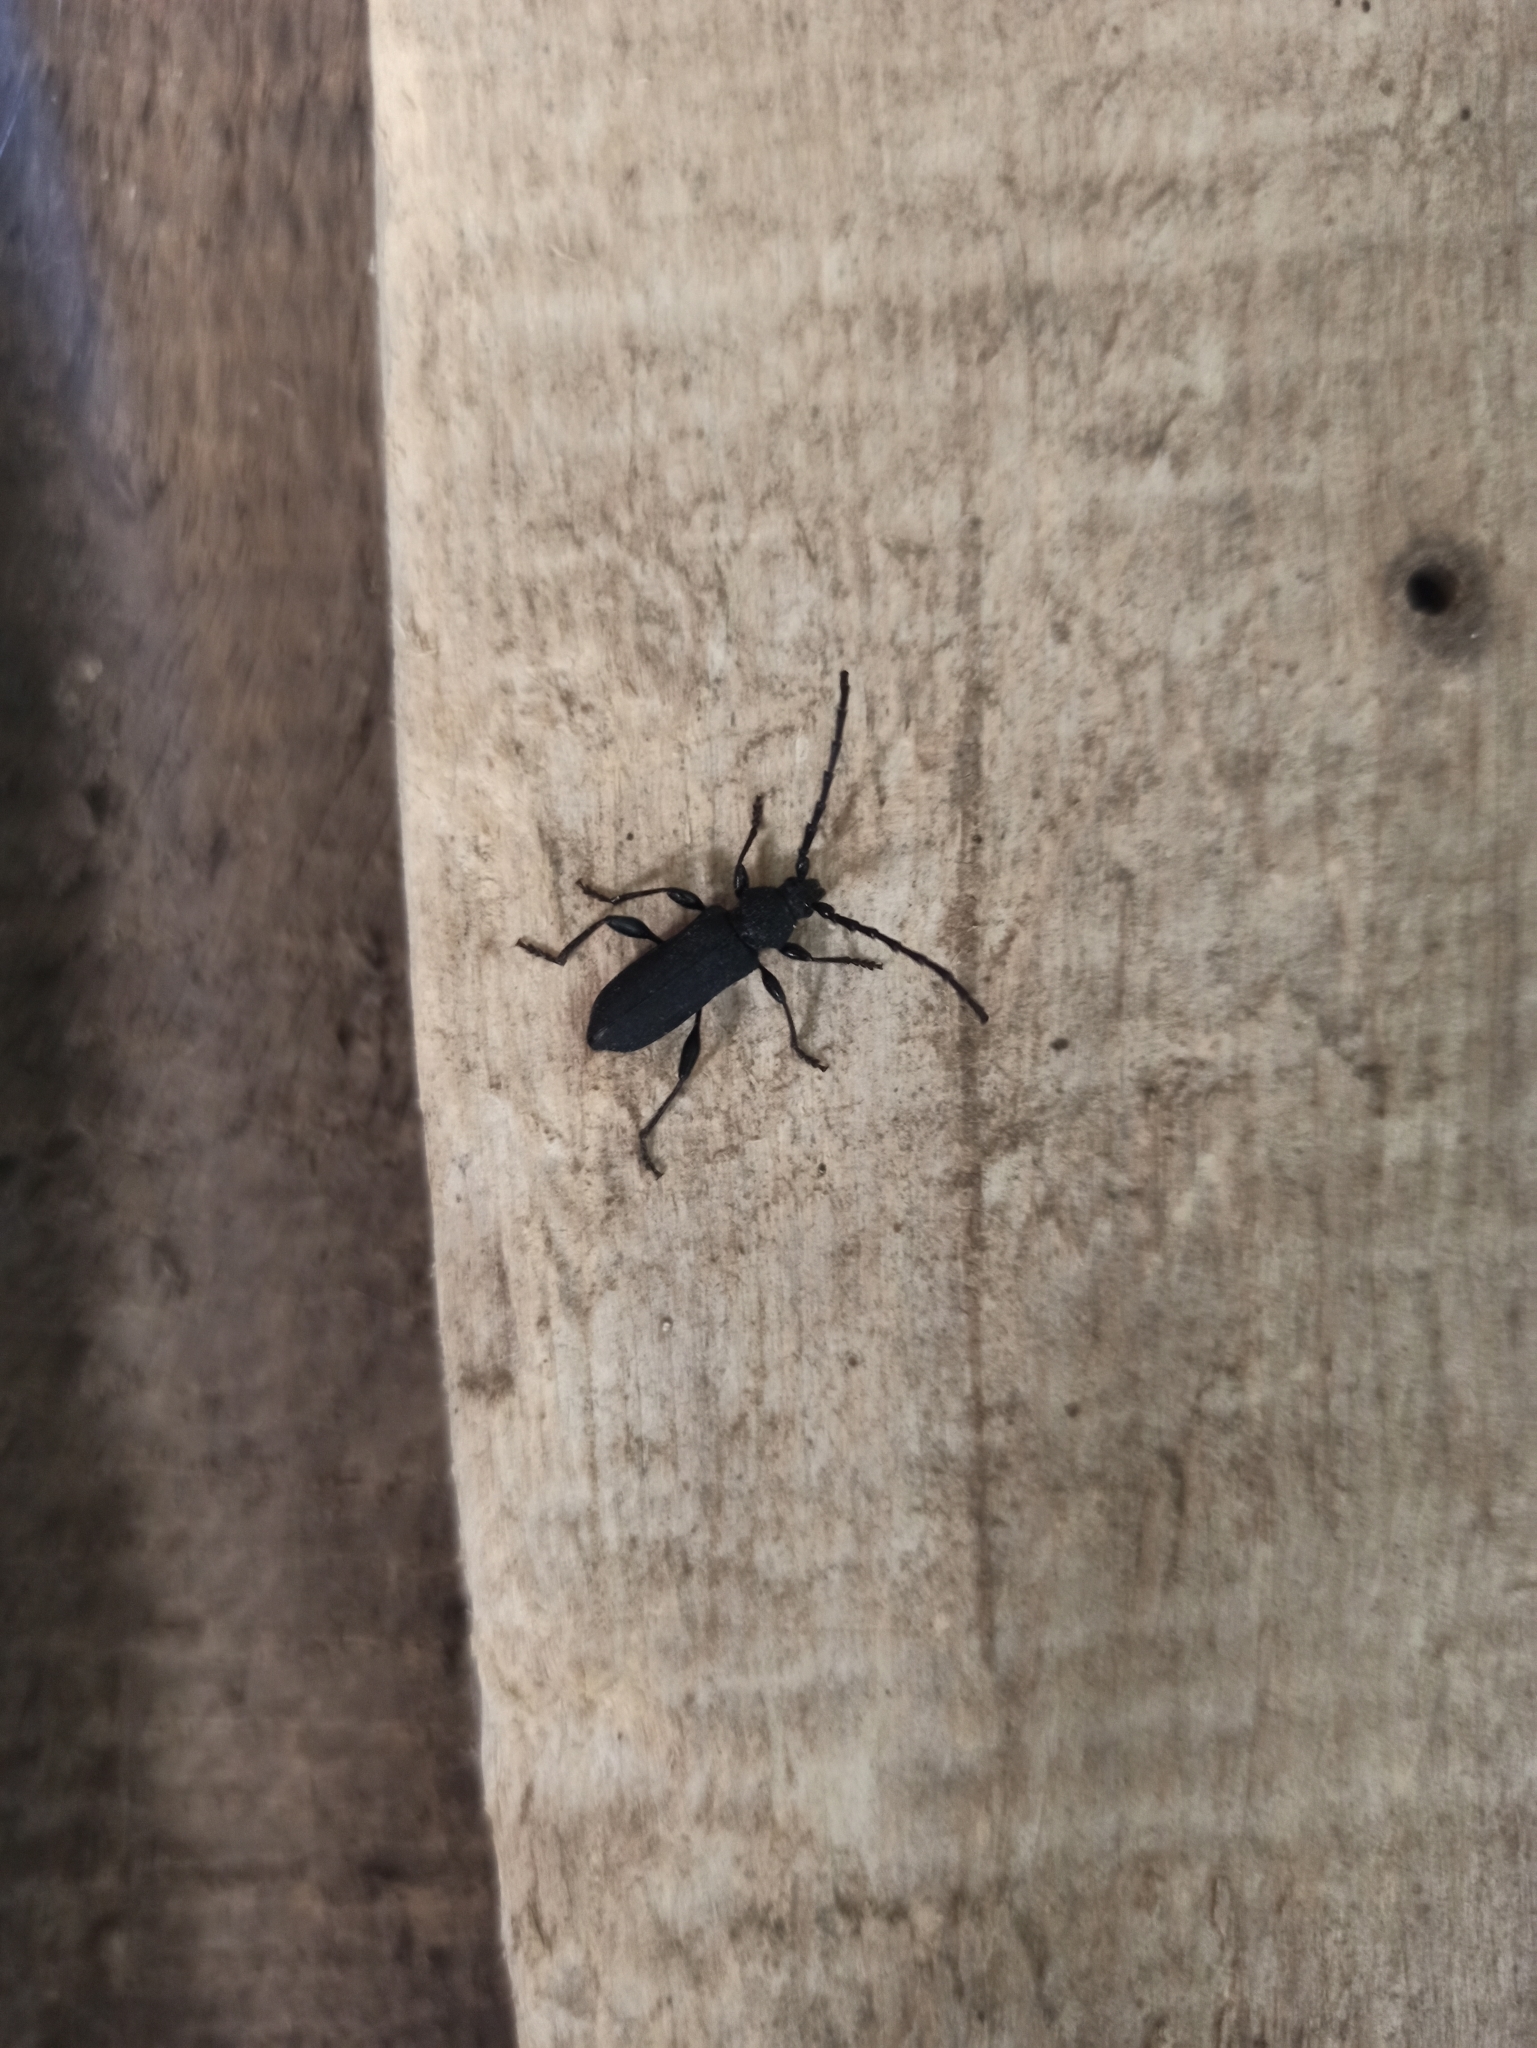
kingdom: Animalia
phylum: Arthropoda
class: Insecta
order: Coleoptera
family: Cerambycidae
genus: Ropalopus
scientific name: Ropalopus clavipes
